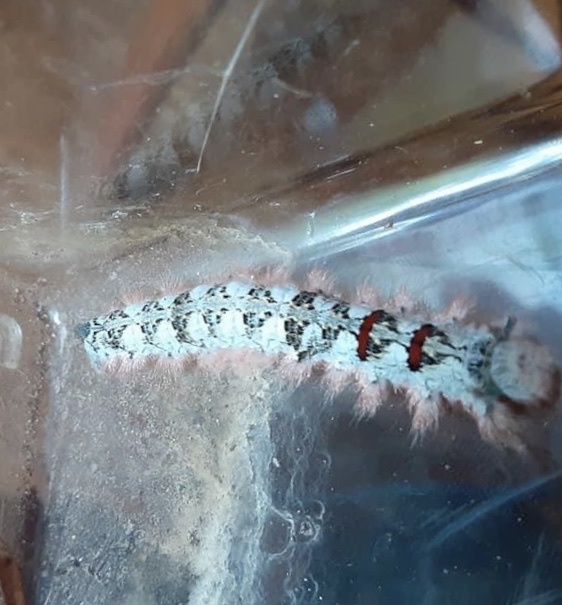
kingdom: Animalia
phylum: Arthropoda
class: Insecta
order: Lepidoptera
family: Lasiocampidae
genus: Phyllodesma
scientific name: Phyllodesma americana
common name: American lappet moth
